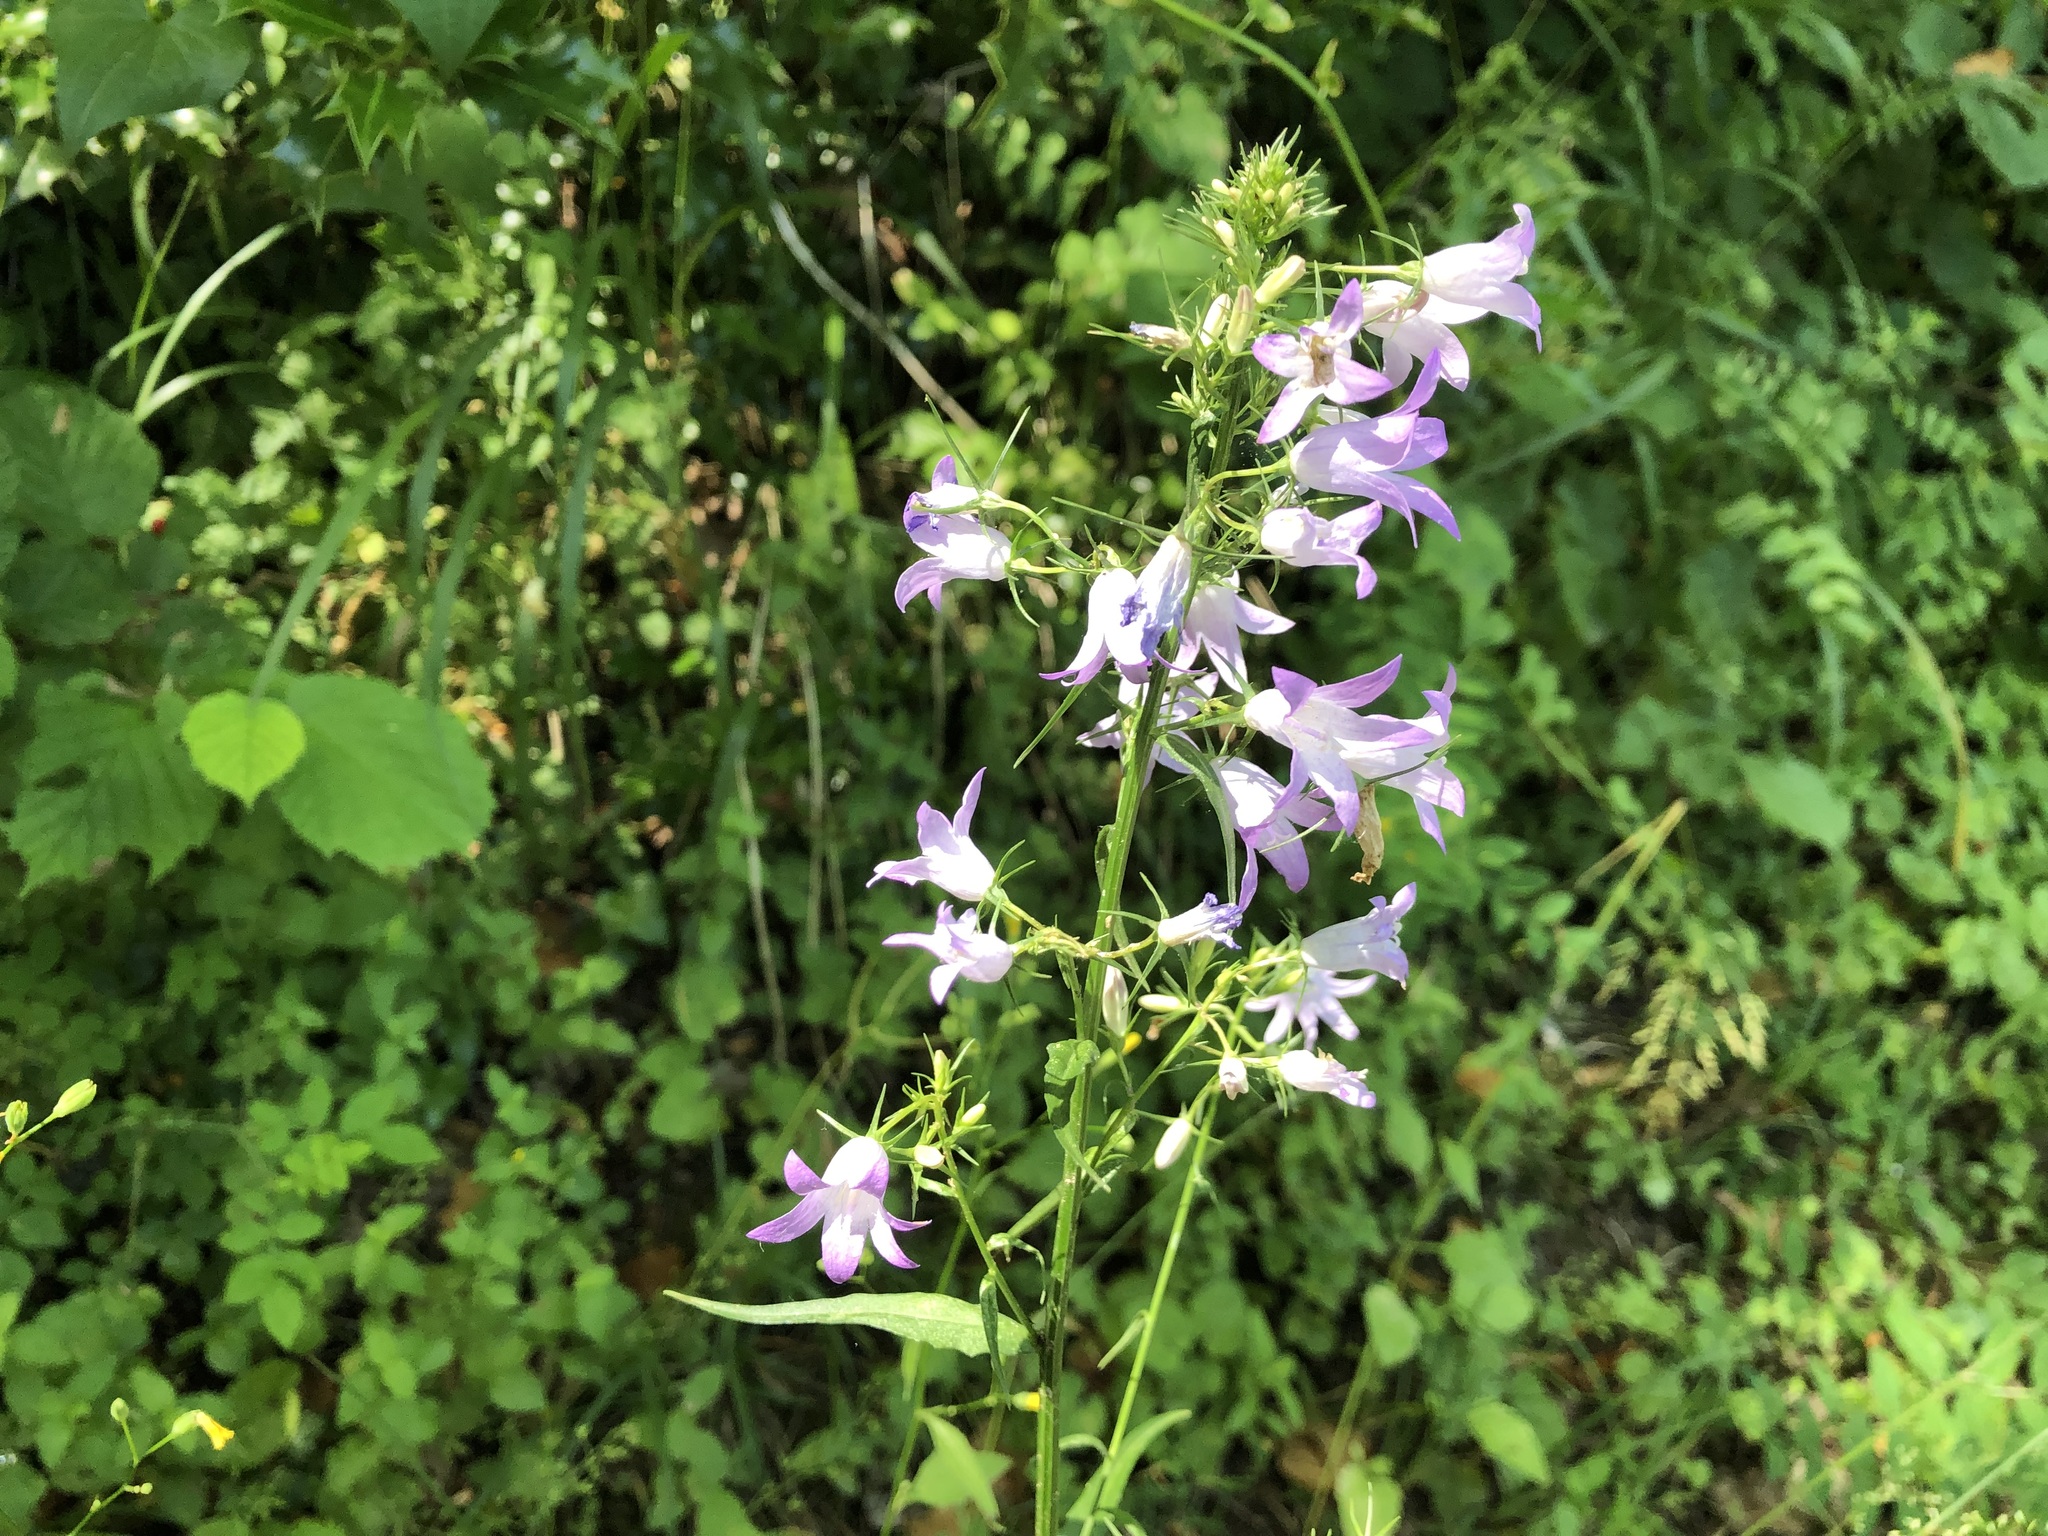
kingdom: Plantae
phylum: Tracheophyta
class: Magnoliopsida
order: Asterales
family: Campanulaceae
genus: Campanula
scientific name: Campanula rapunculus
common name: Rampion bellflower
